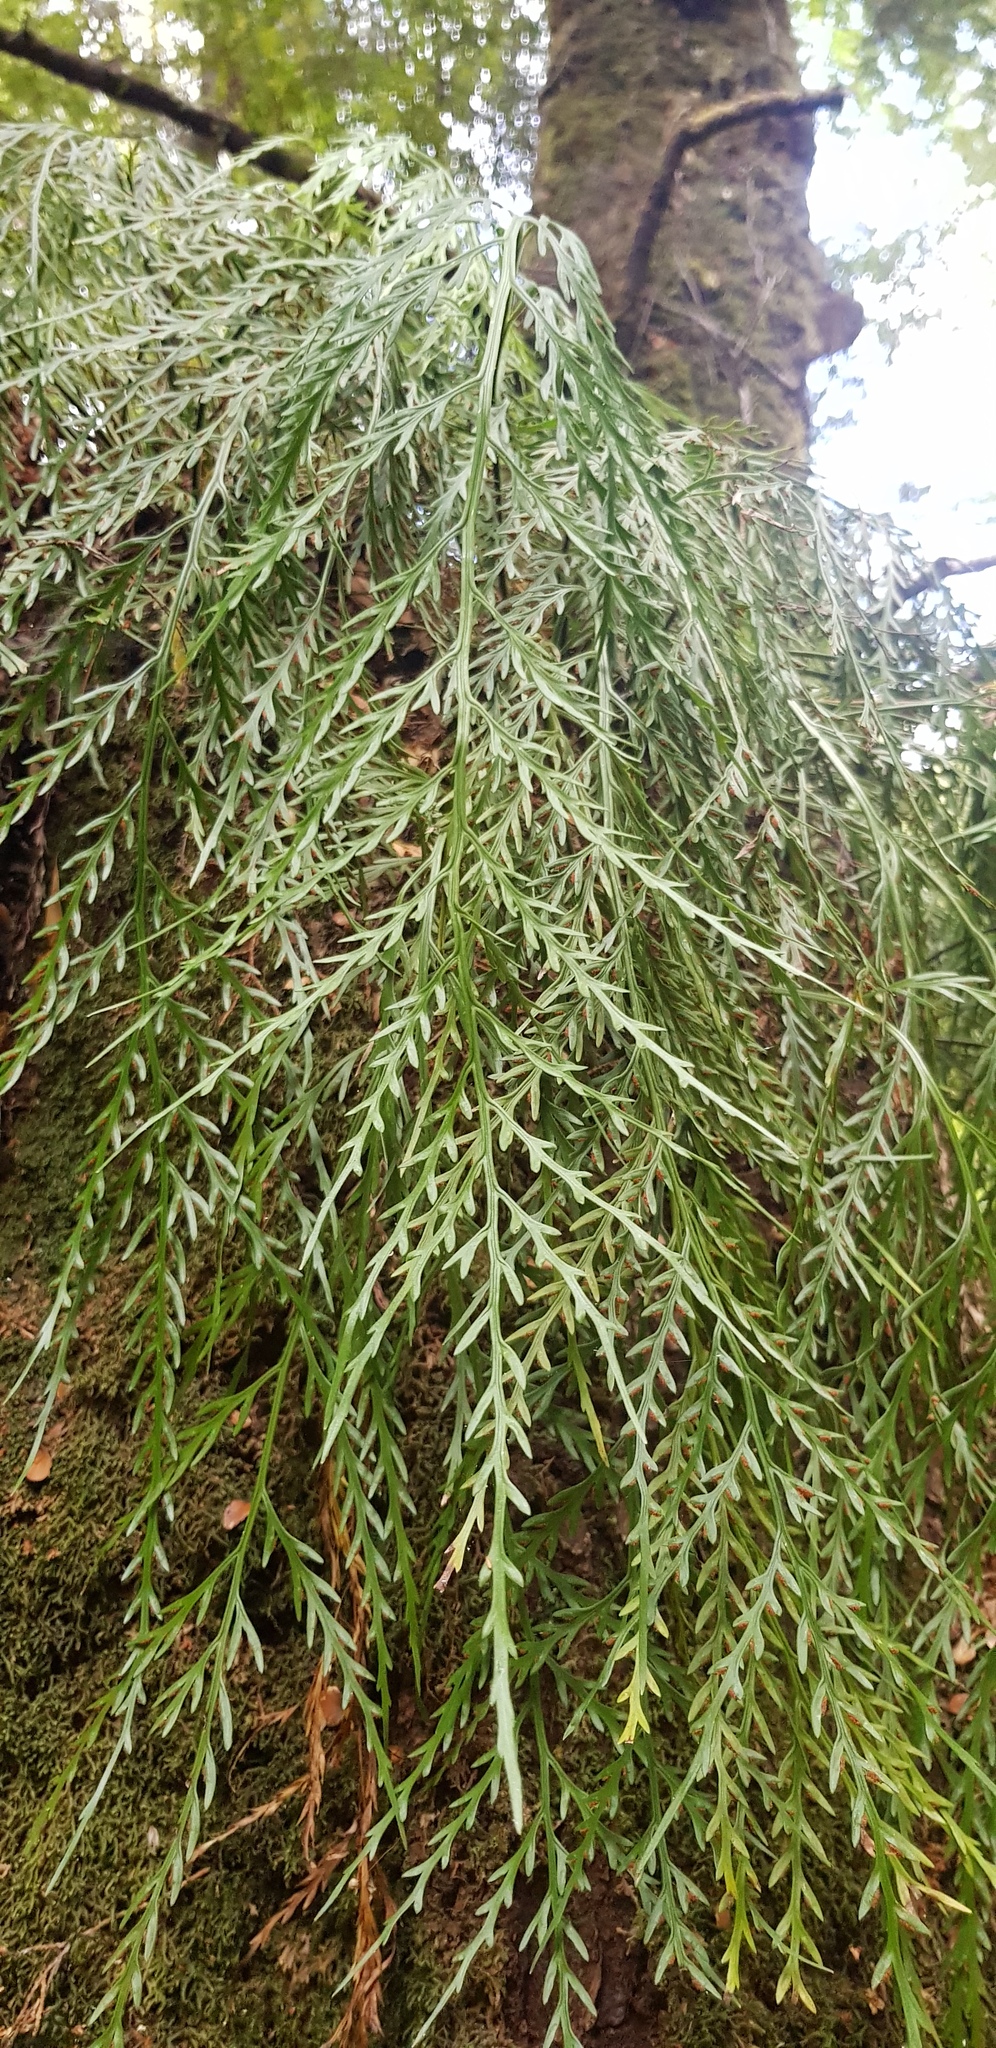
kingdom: Plantae
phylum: Tracheophyta
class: Polypodiopsida
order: Polypodiales
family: Aspleniaceae
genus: Asplenium
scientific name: Asplenium flaccidum
